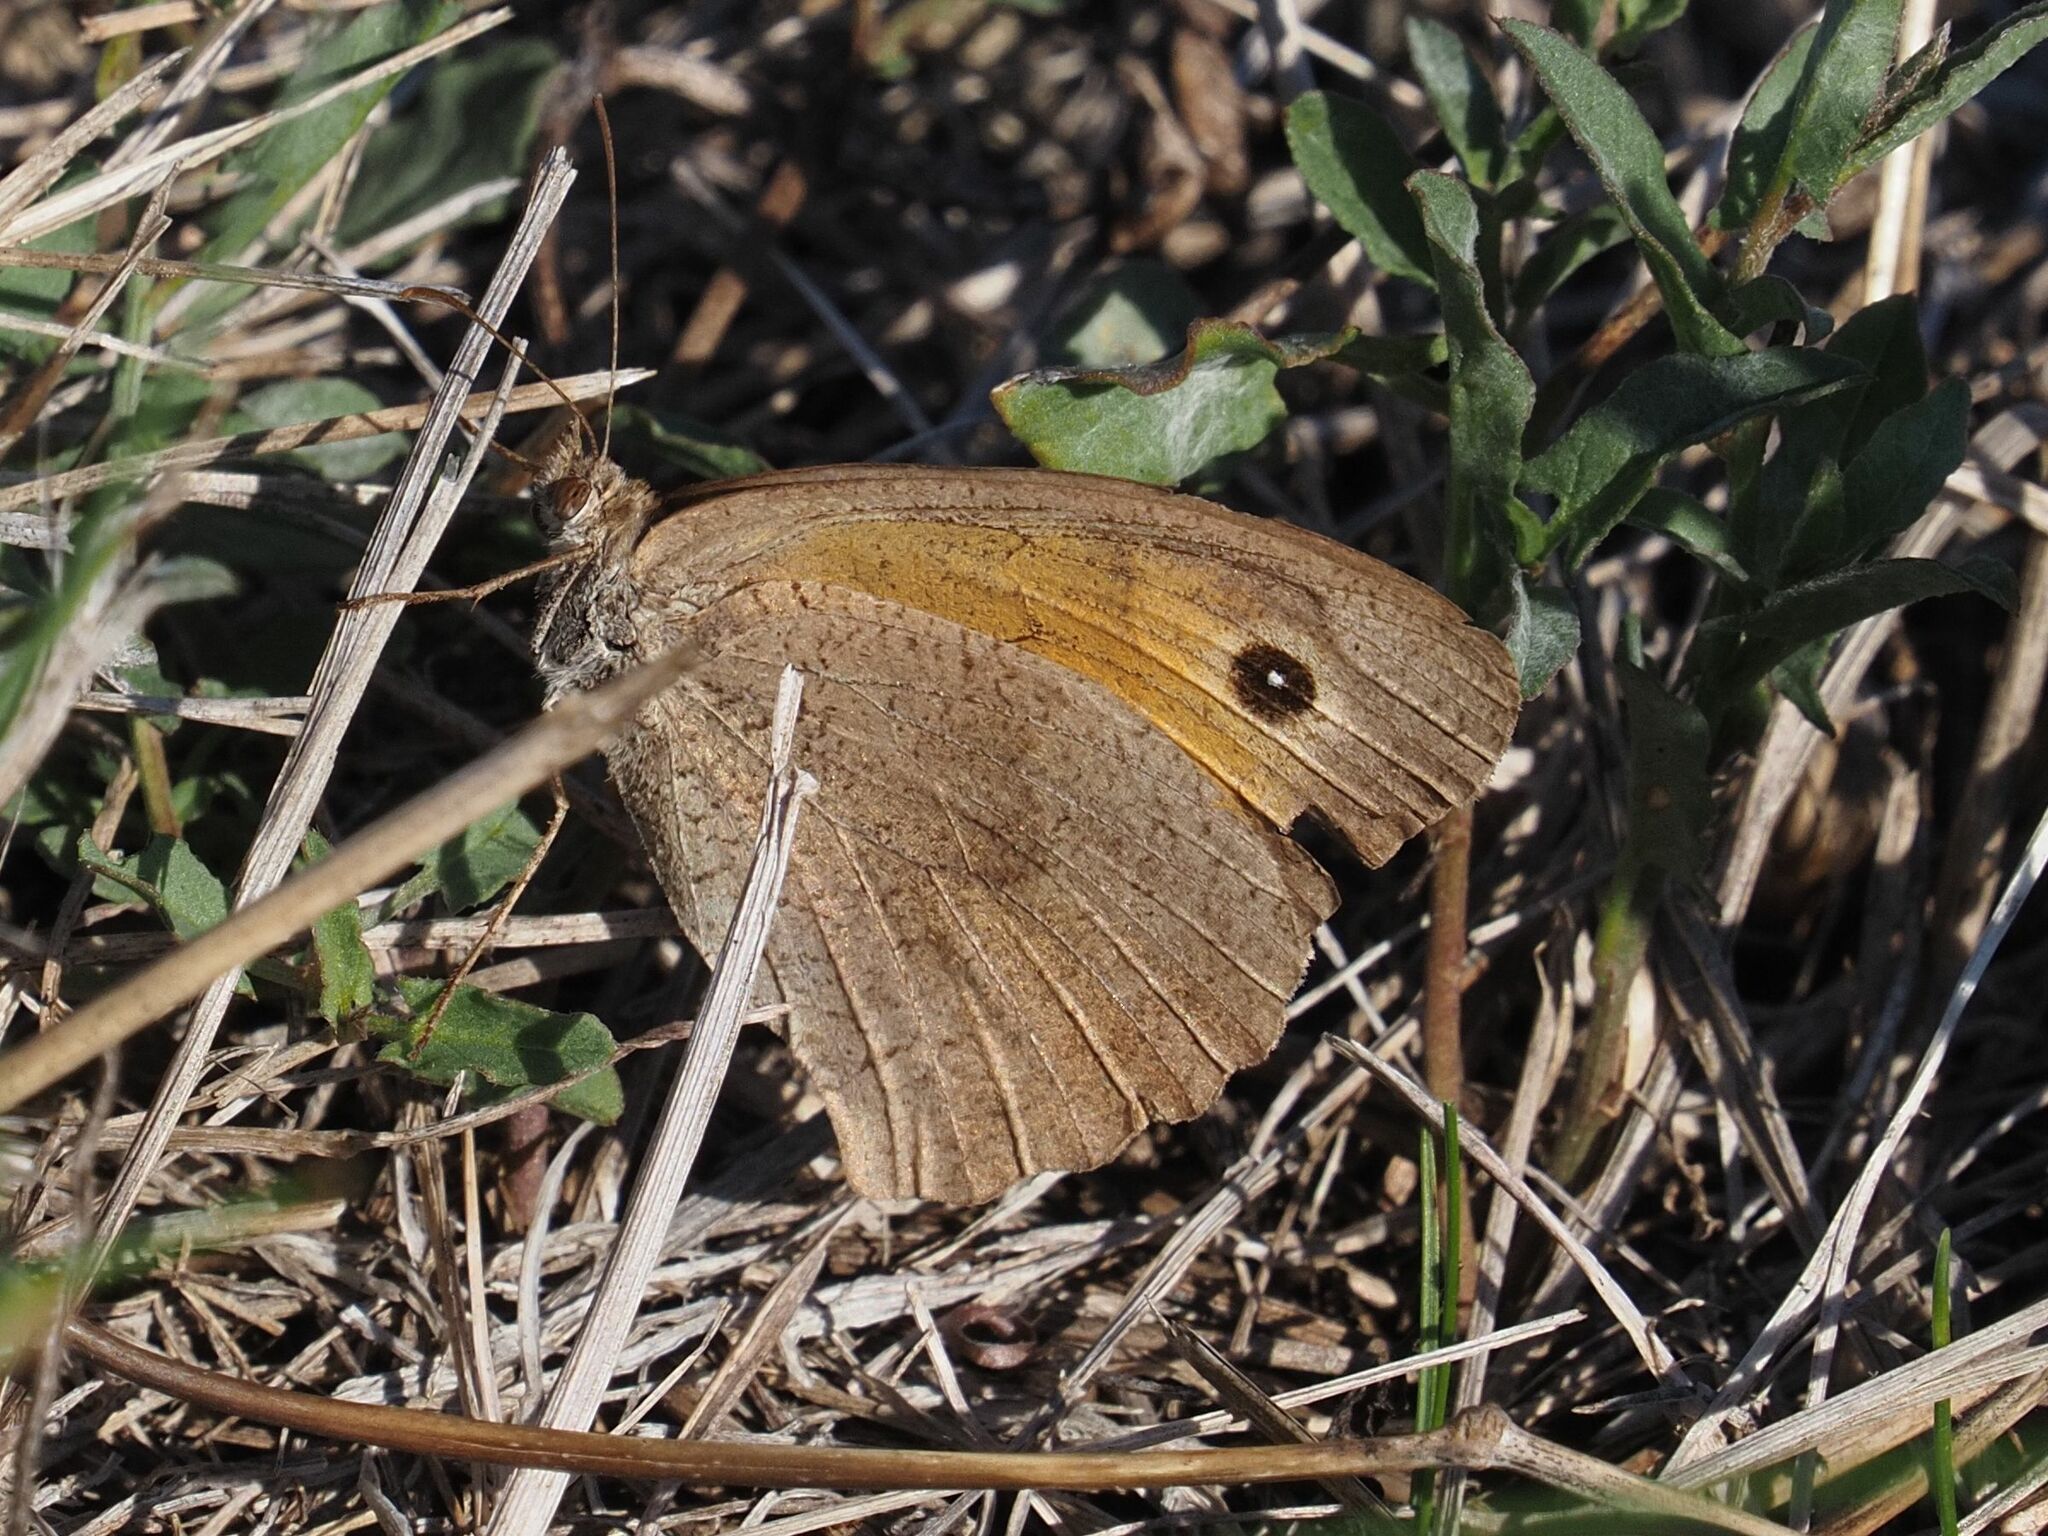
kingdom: Animalia
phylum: Arthropoda
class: Insecta
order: Lepidoptera
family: Nymphalidae
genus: Maniola
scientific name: Maniola jurtina
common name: Meadow brown
